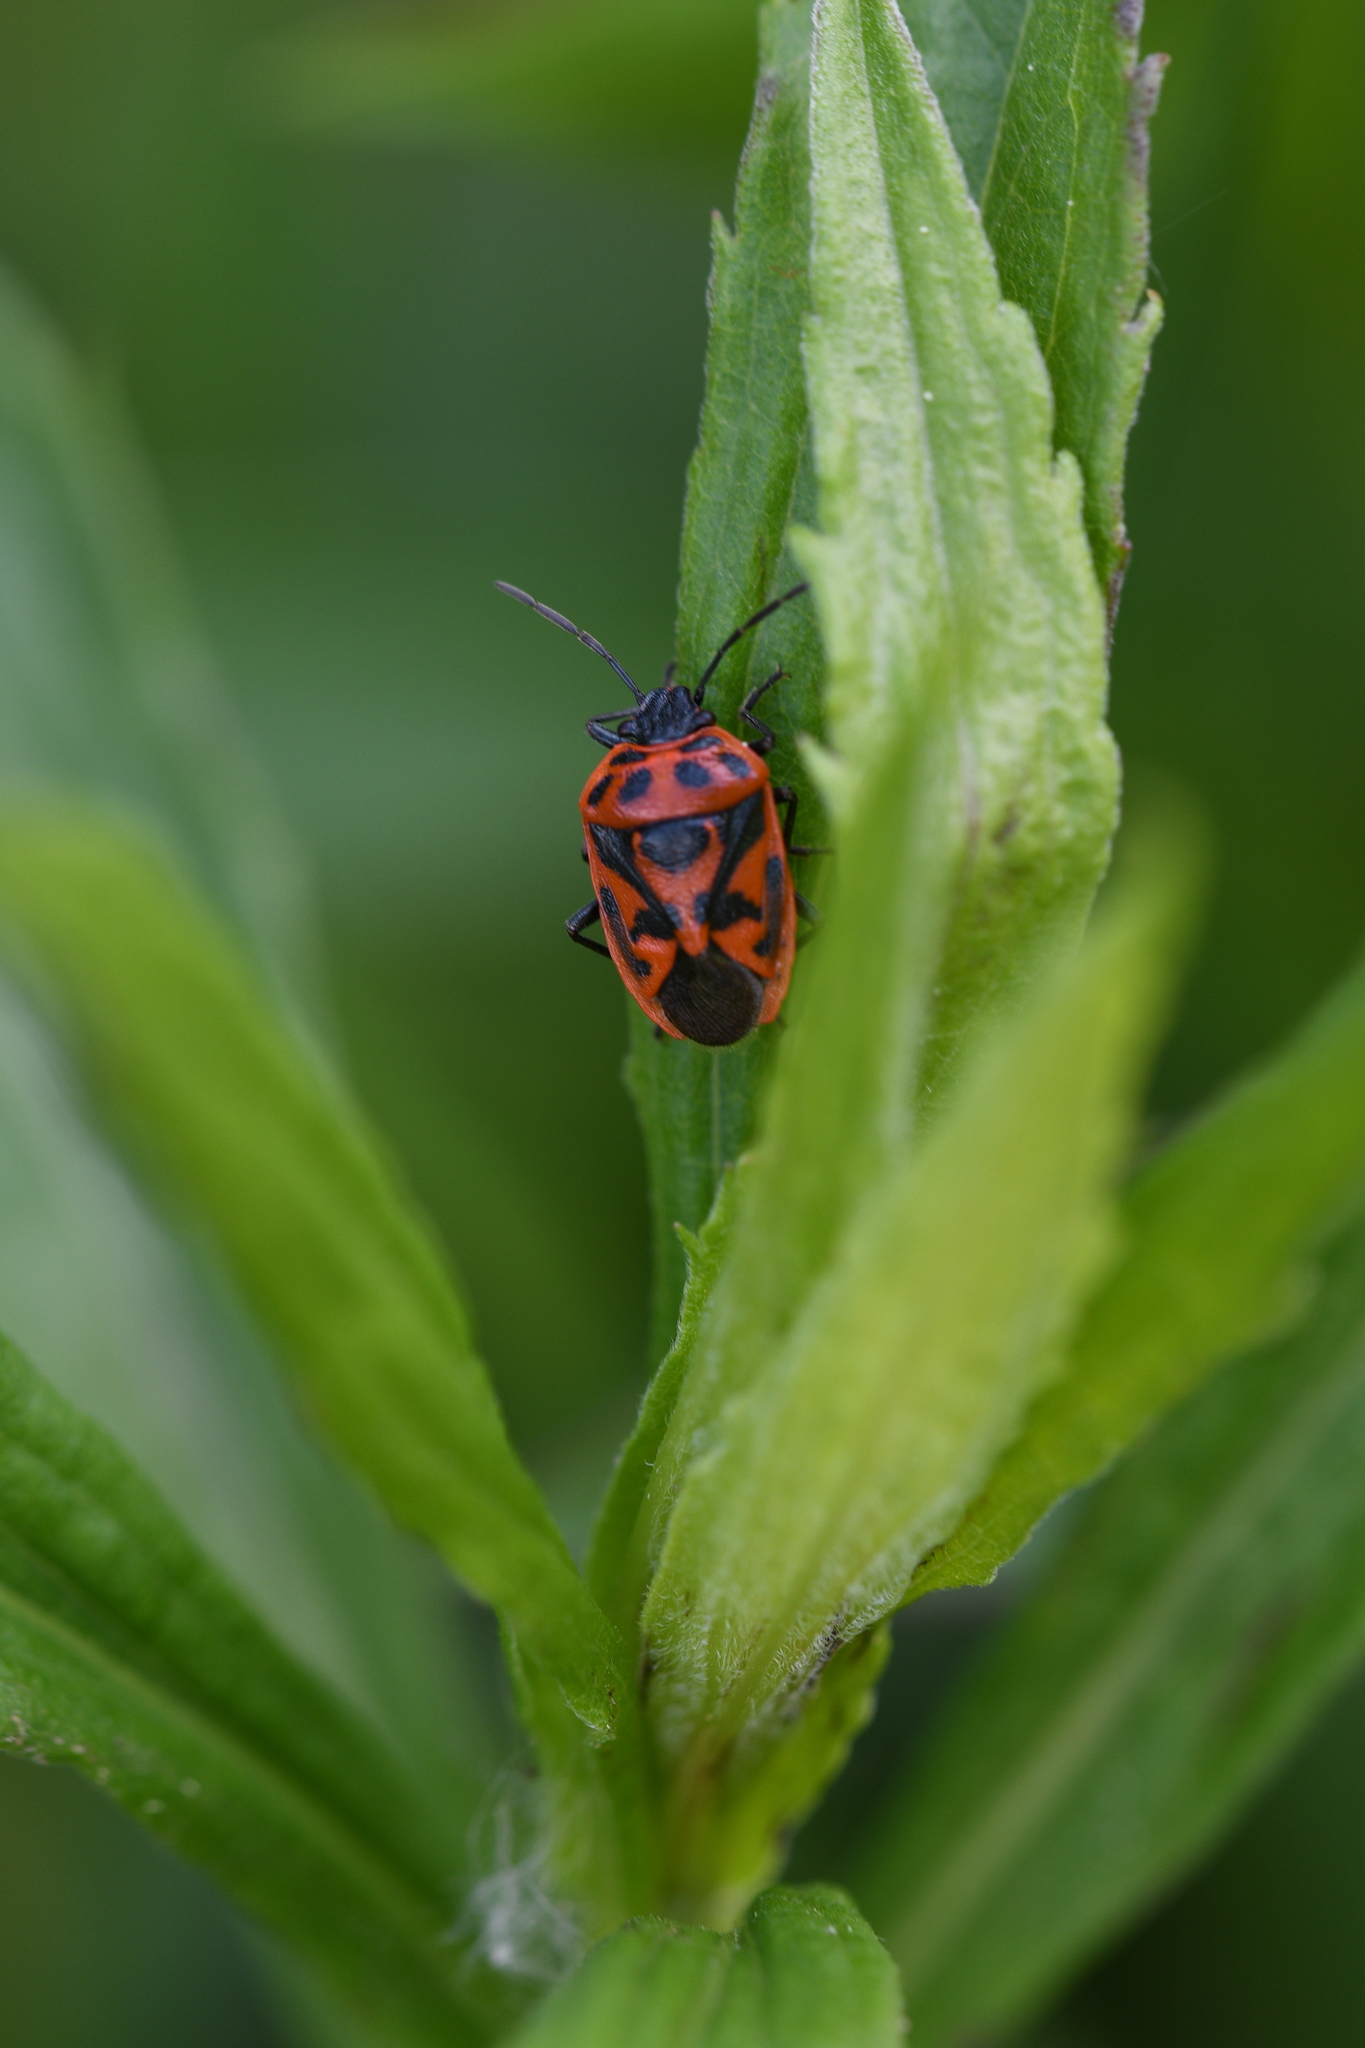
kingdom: Animalia
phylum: Arthropoda
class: Insecta
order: Hemiptera
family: Pentatomidae
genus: Eurydema
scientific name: Eurydema ornata
